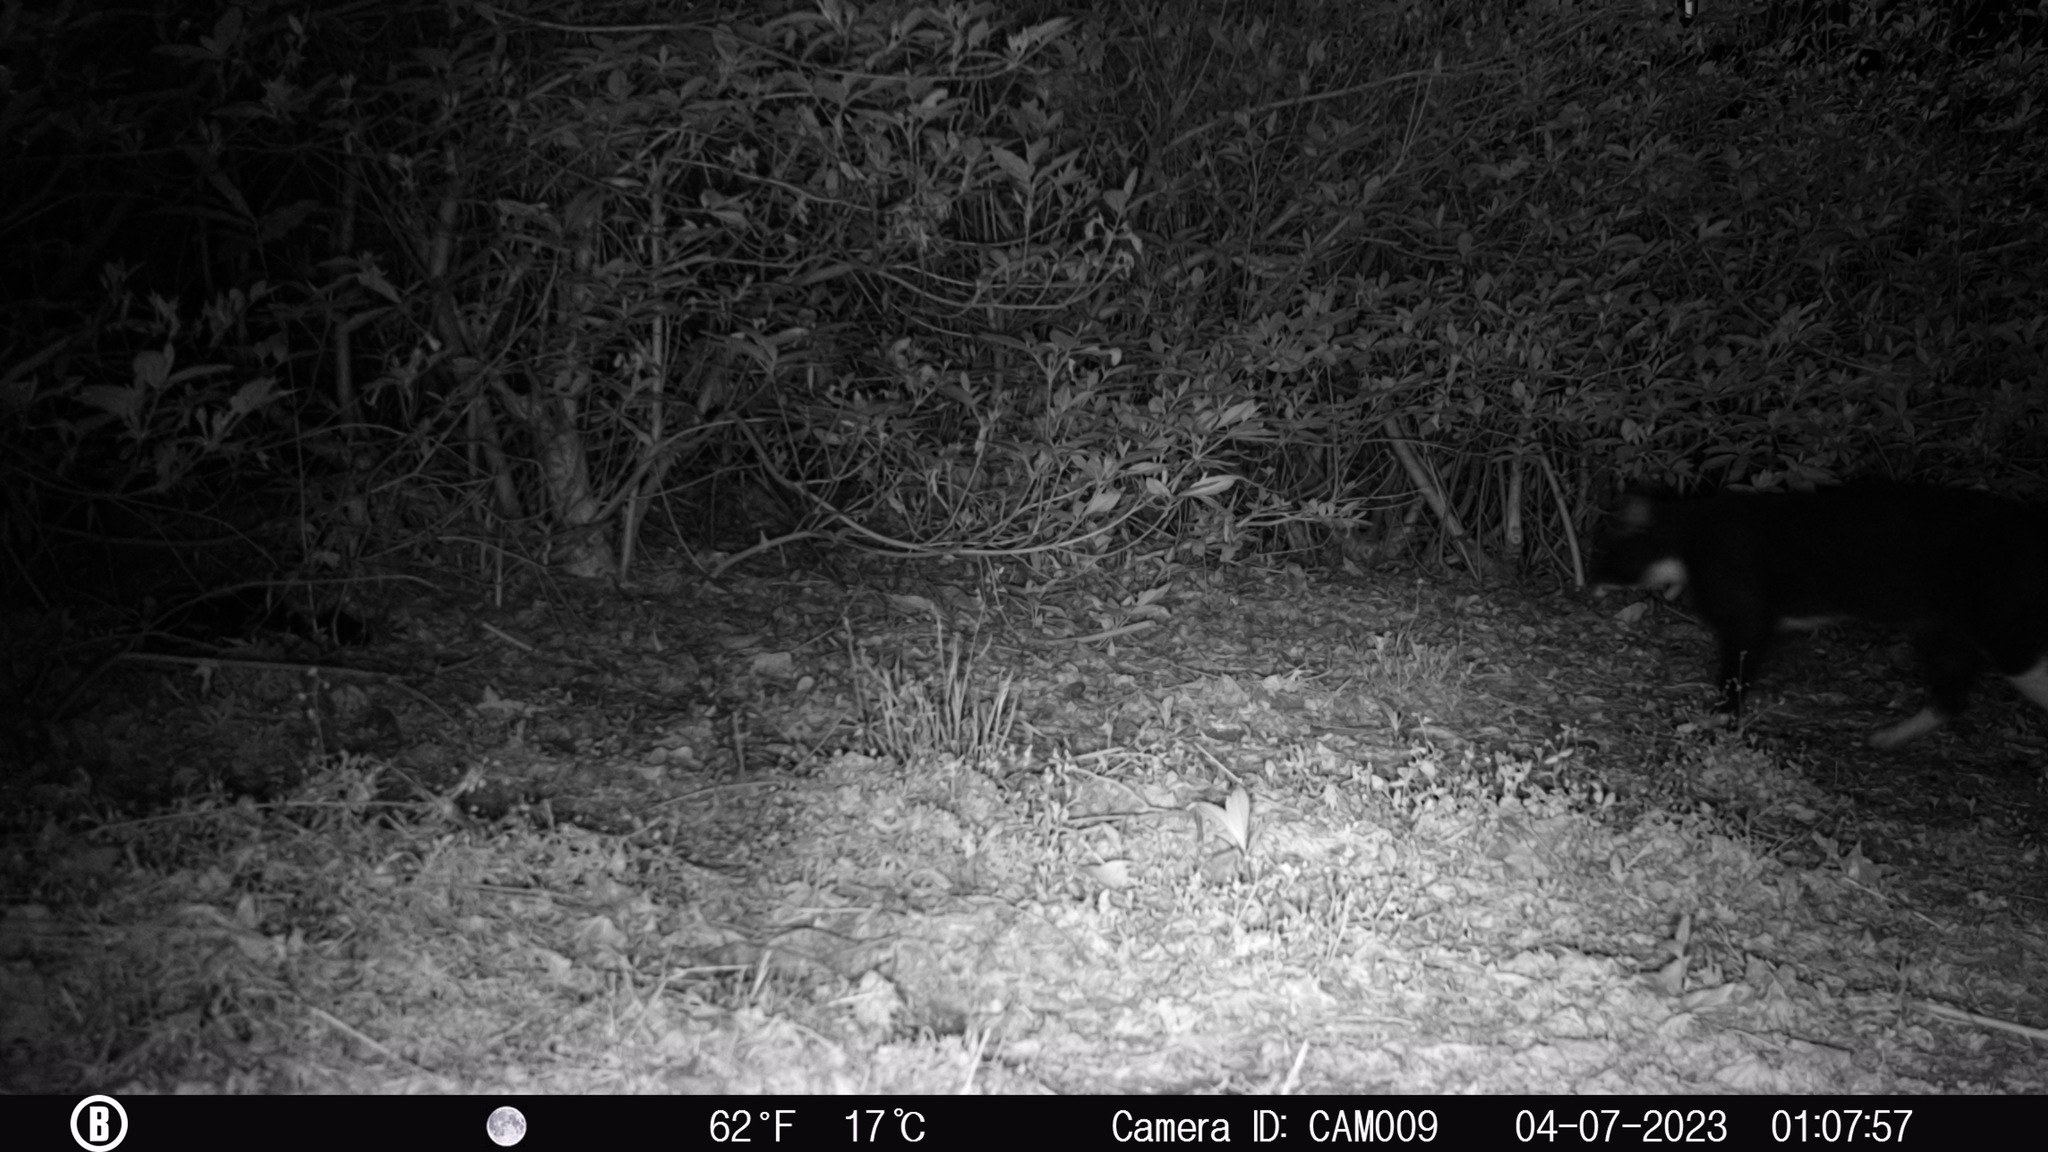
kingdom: Animalia
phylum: Chordata
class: Mammalia
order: Carnivora
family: Felidae
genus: Felis
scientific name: Felis catus
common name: Domestic cat
